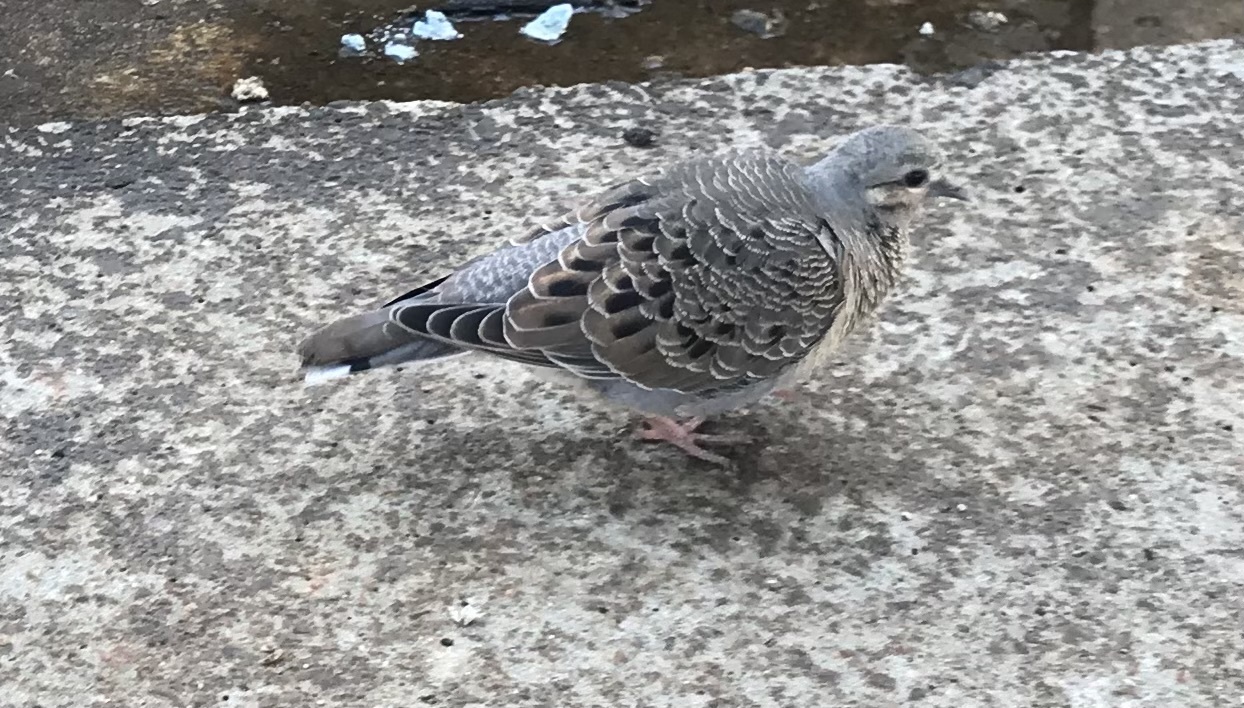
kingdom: Animalia
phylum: Chordata
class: Aves
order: Columbiformes
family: Columbidae
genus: Zenaida
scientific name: Zenaida auriculata
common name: Eared dove
